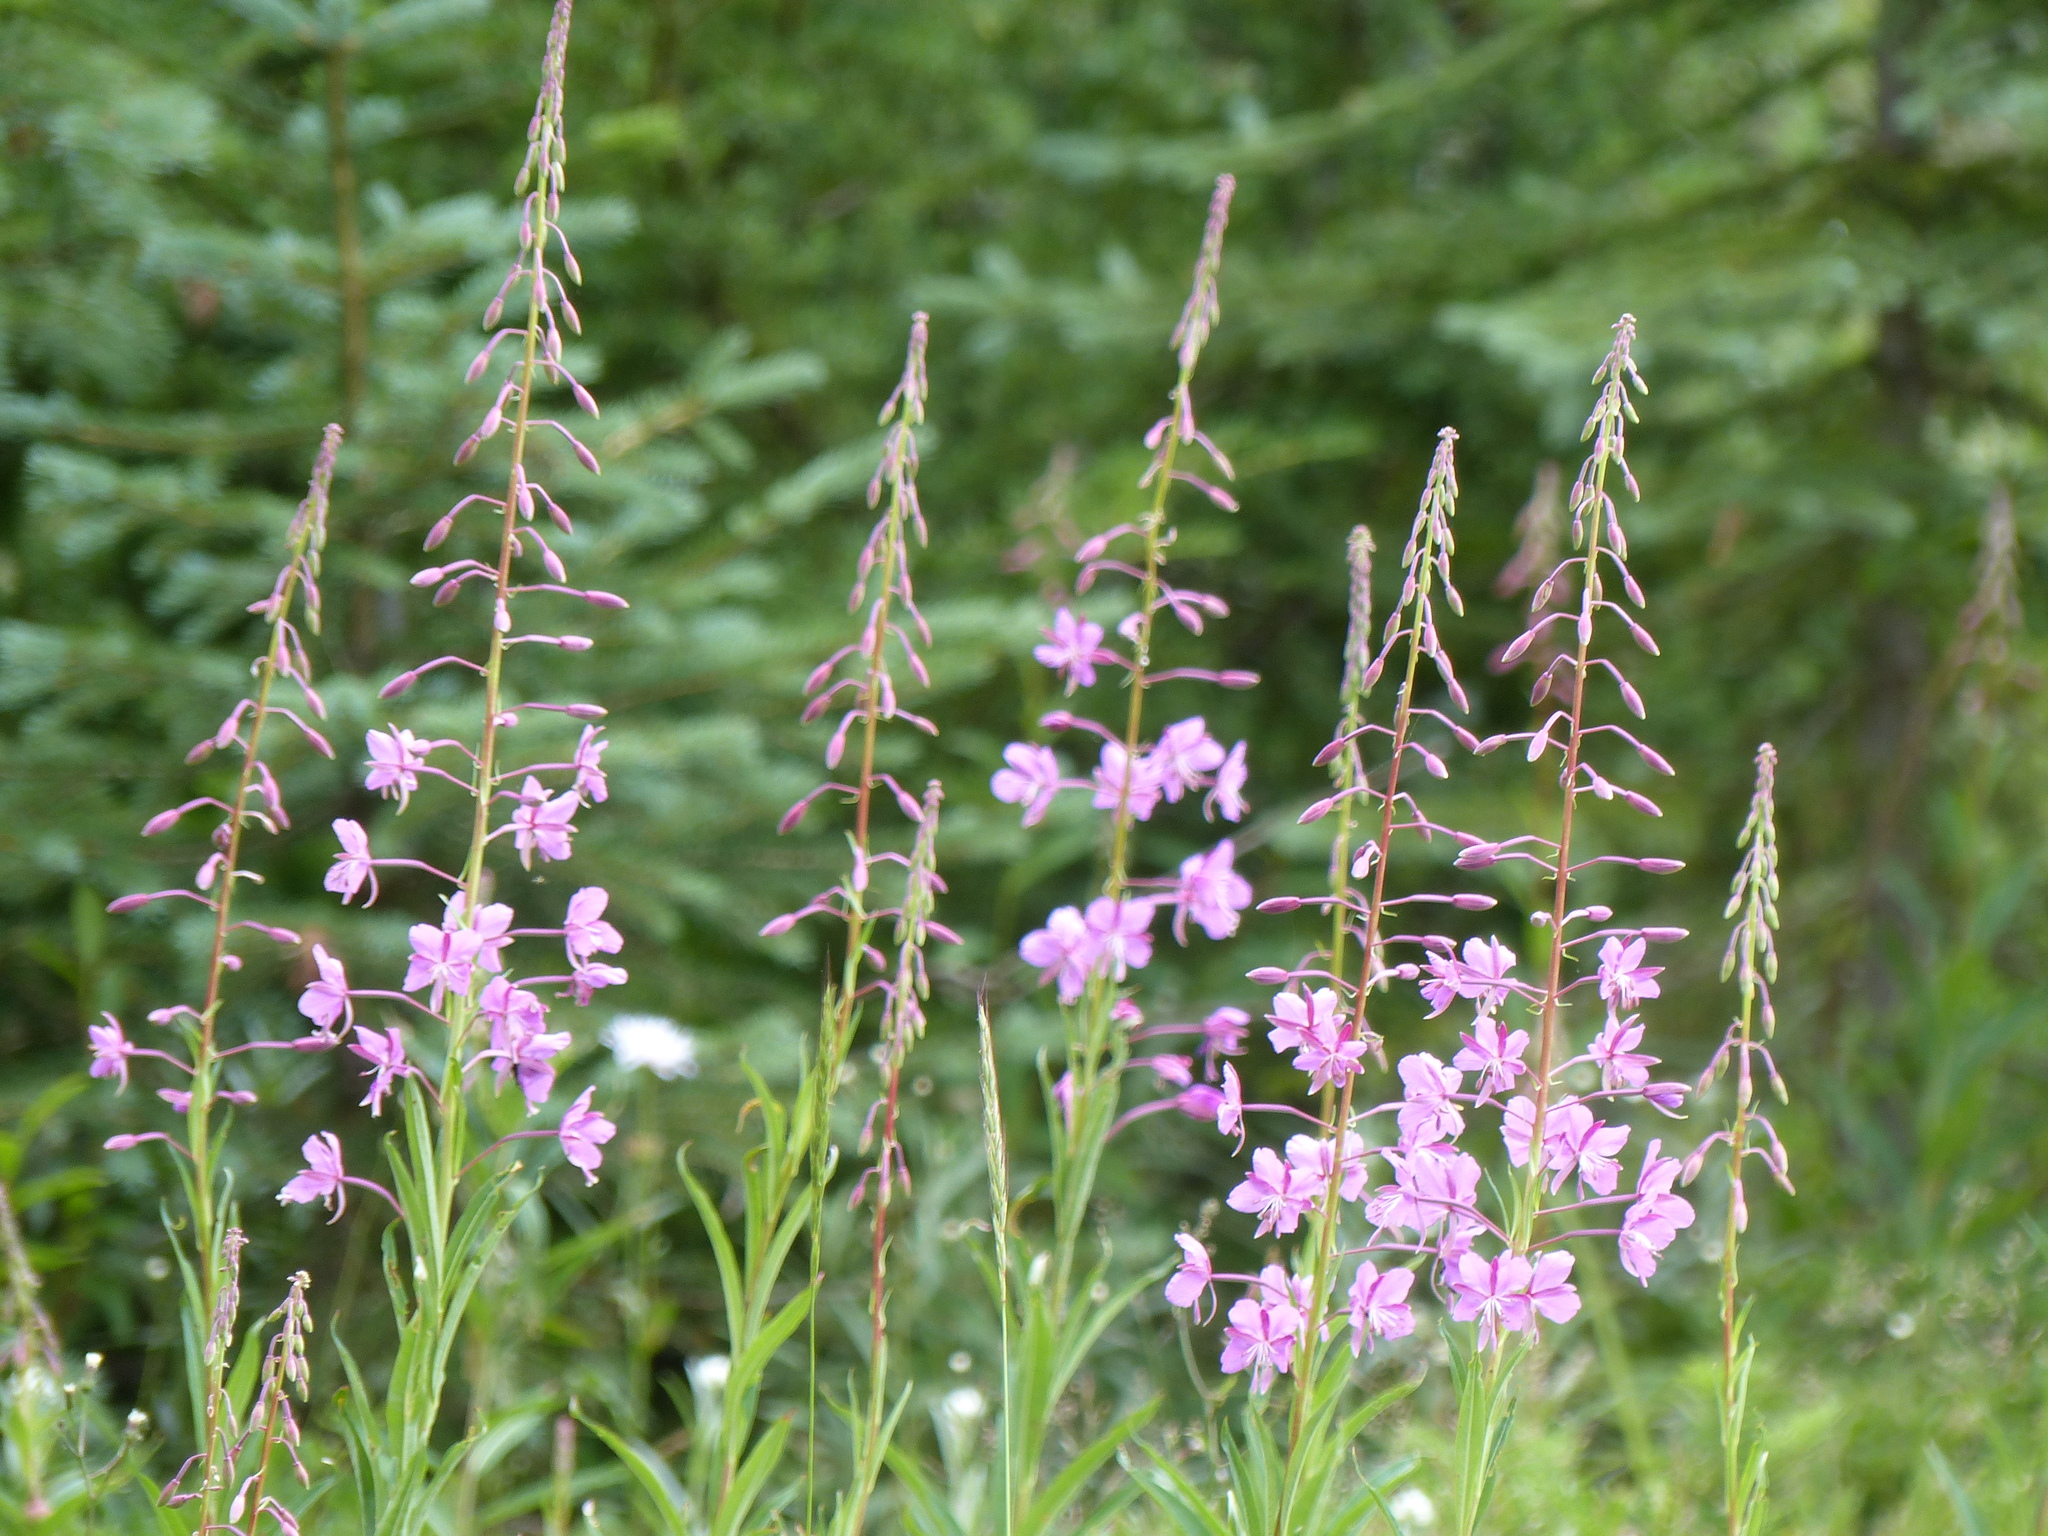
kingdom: Plantae
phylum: Tracheophyta
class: Magnoliopsida
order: Myrtales
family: Onagraceae
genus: Chamaenerion
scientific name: Chamaenerion angustifolium
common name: Fireweed
